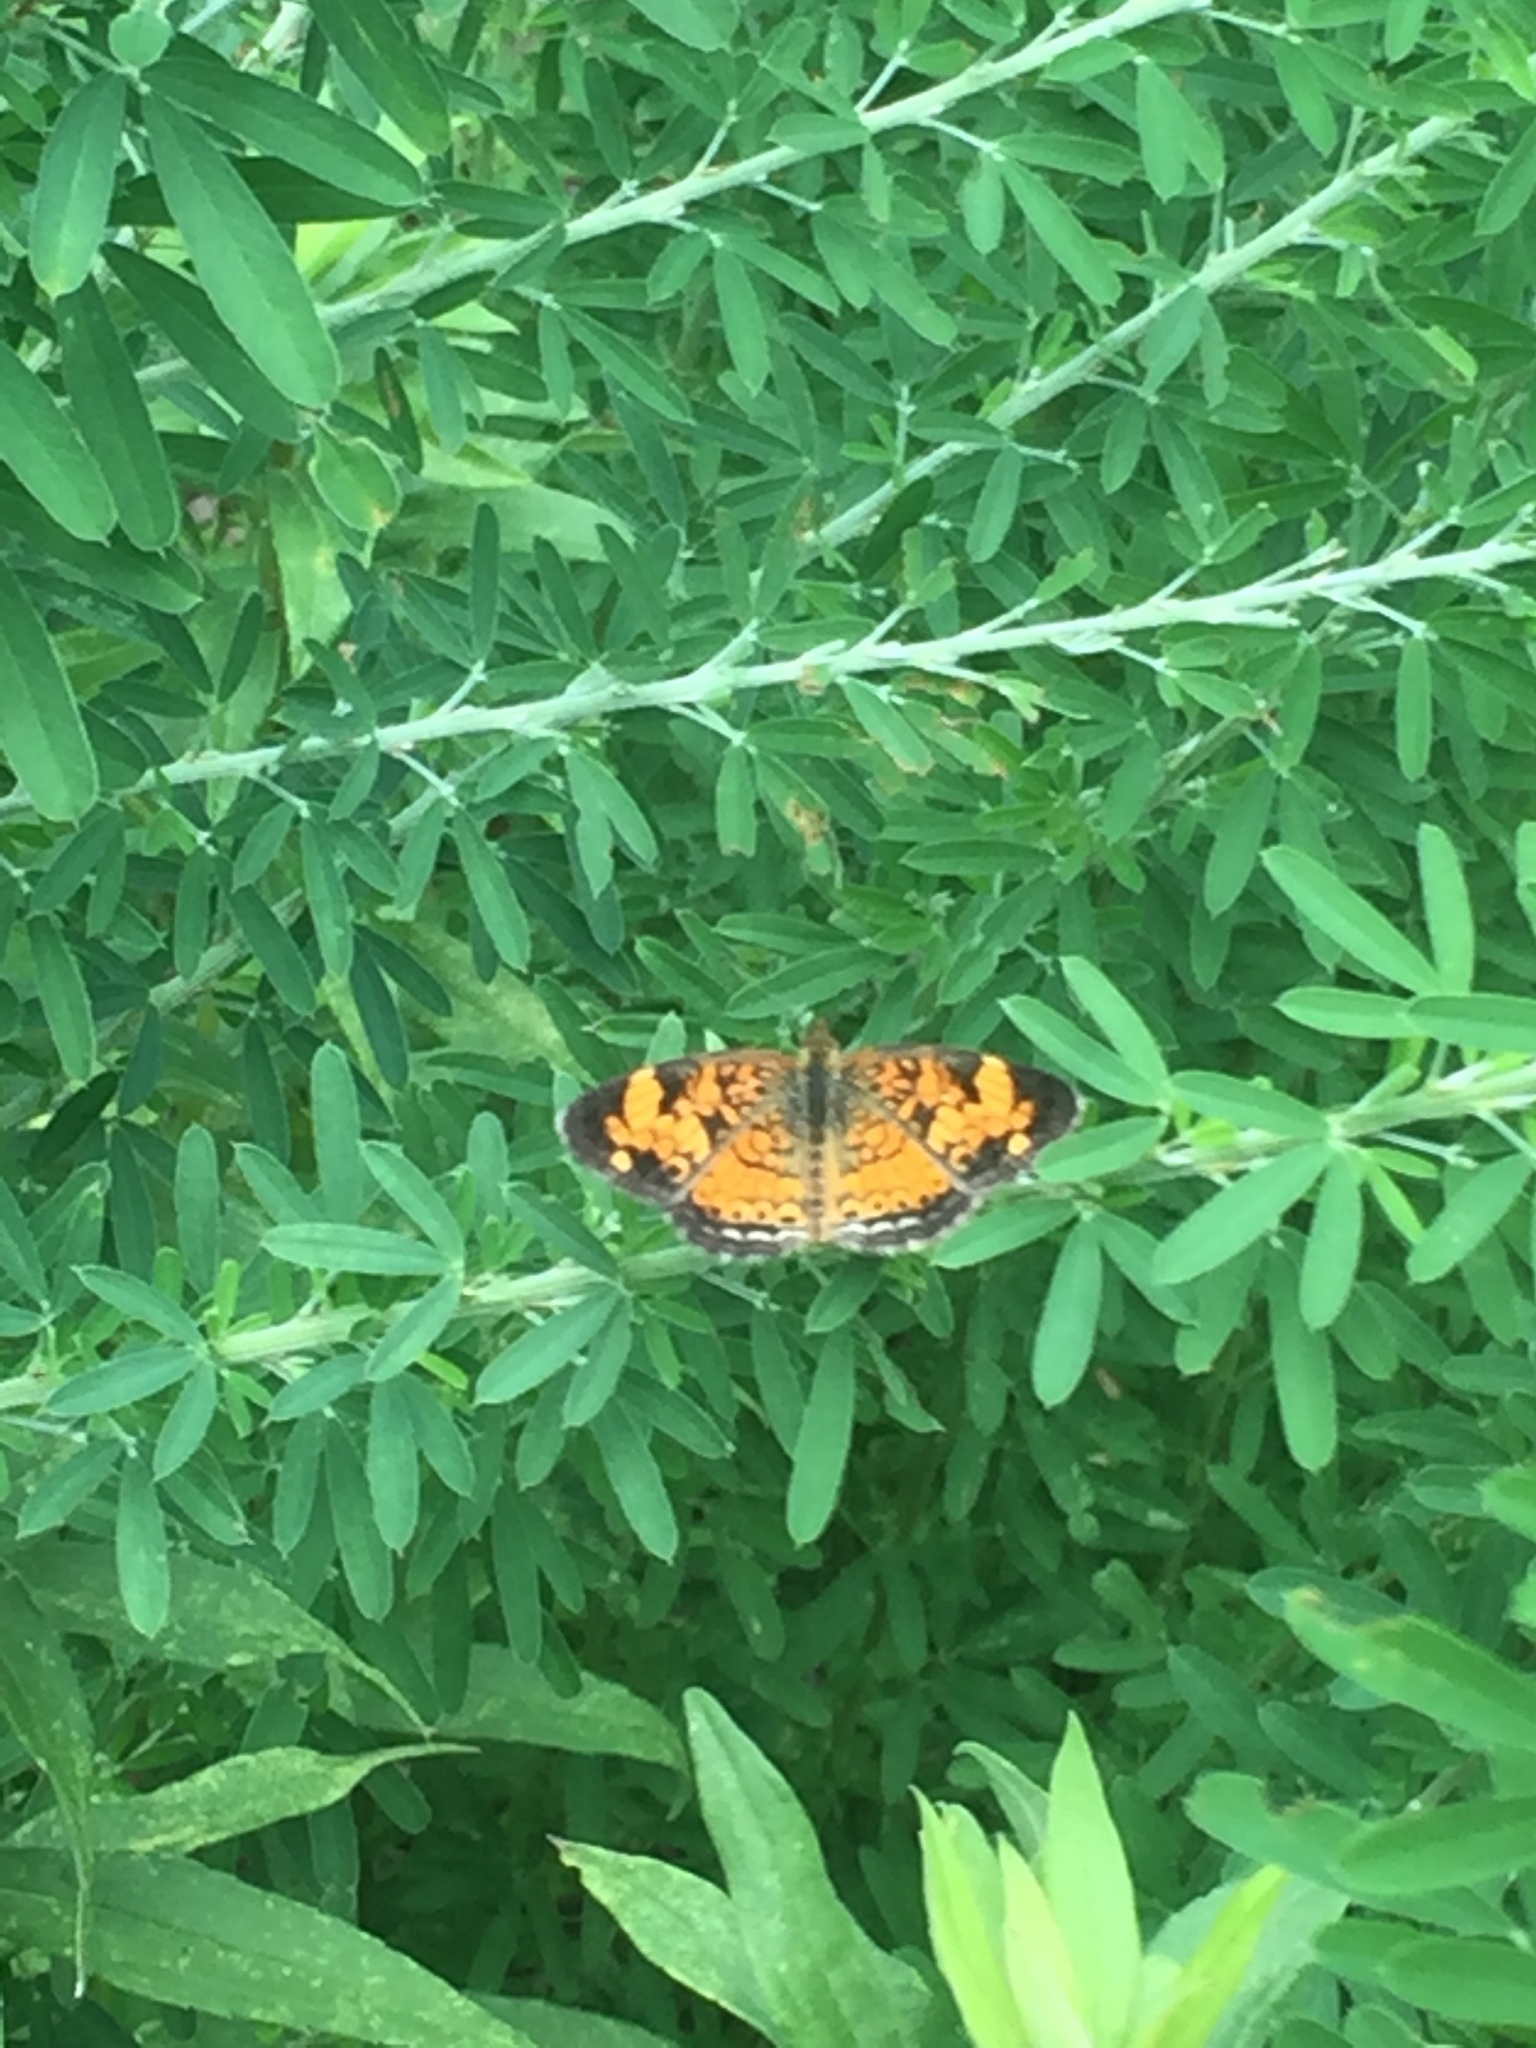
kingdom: Animalia
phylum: Arthropoda
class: Insecta
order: Lepidoptera
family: Nymphalidae
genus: Phyciodes
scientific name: Phyciodes tharos
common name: Pearl crescent
